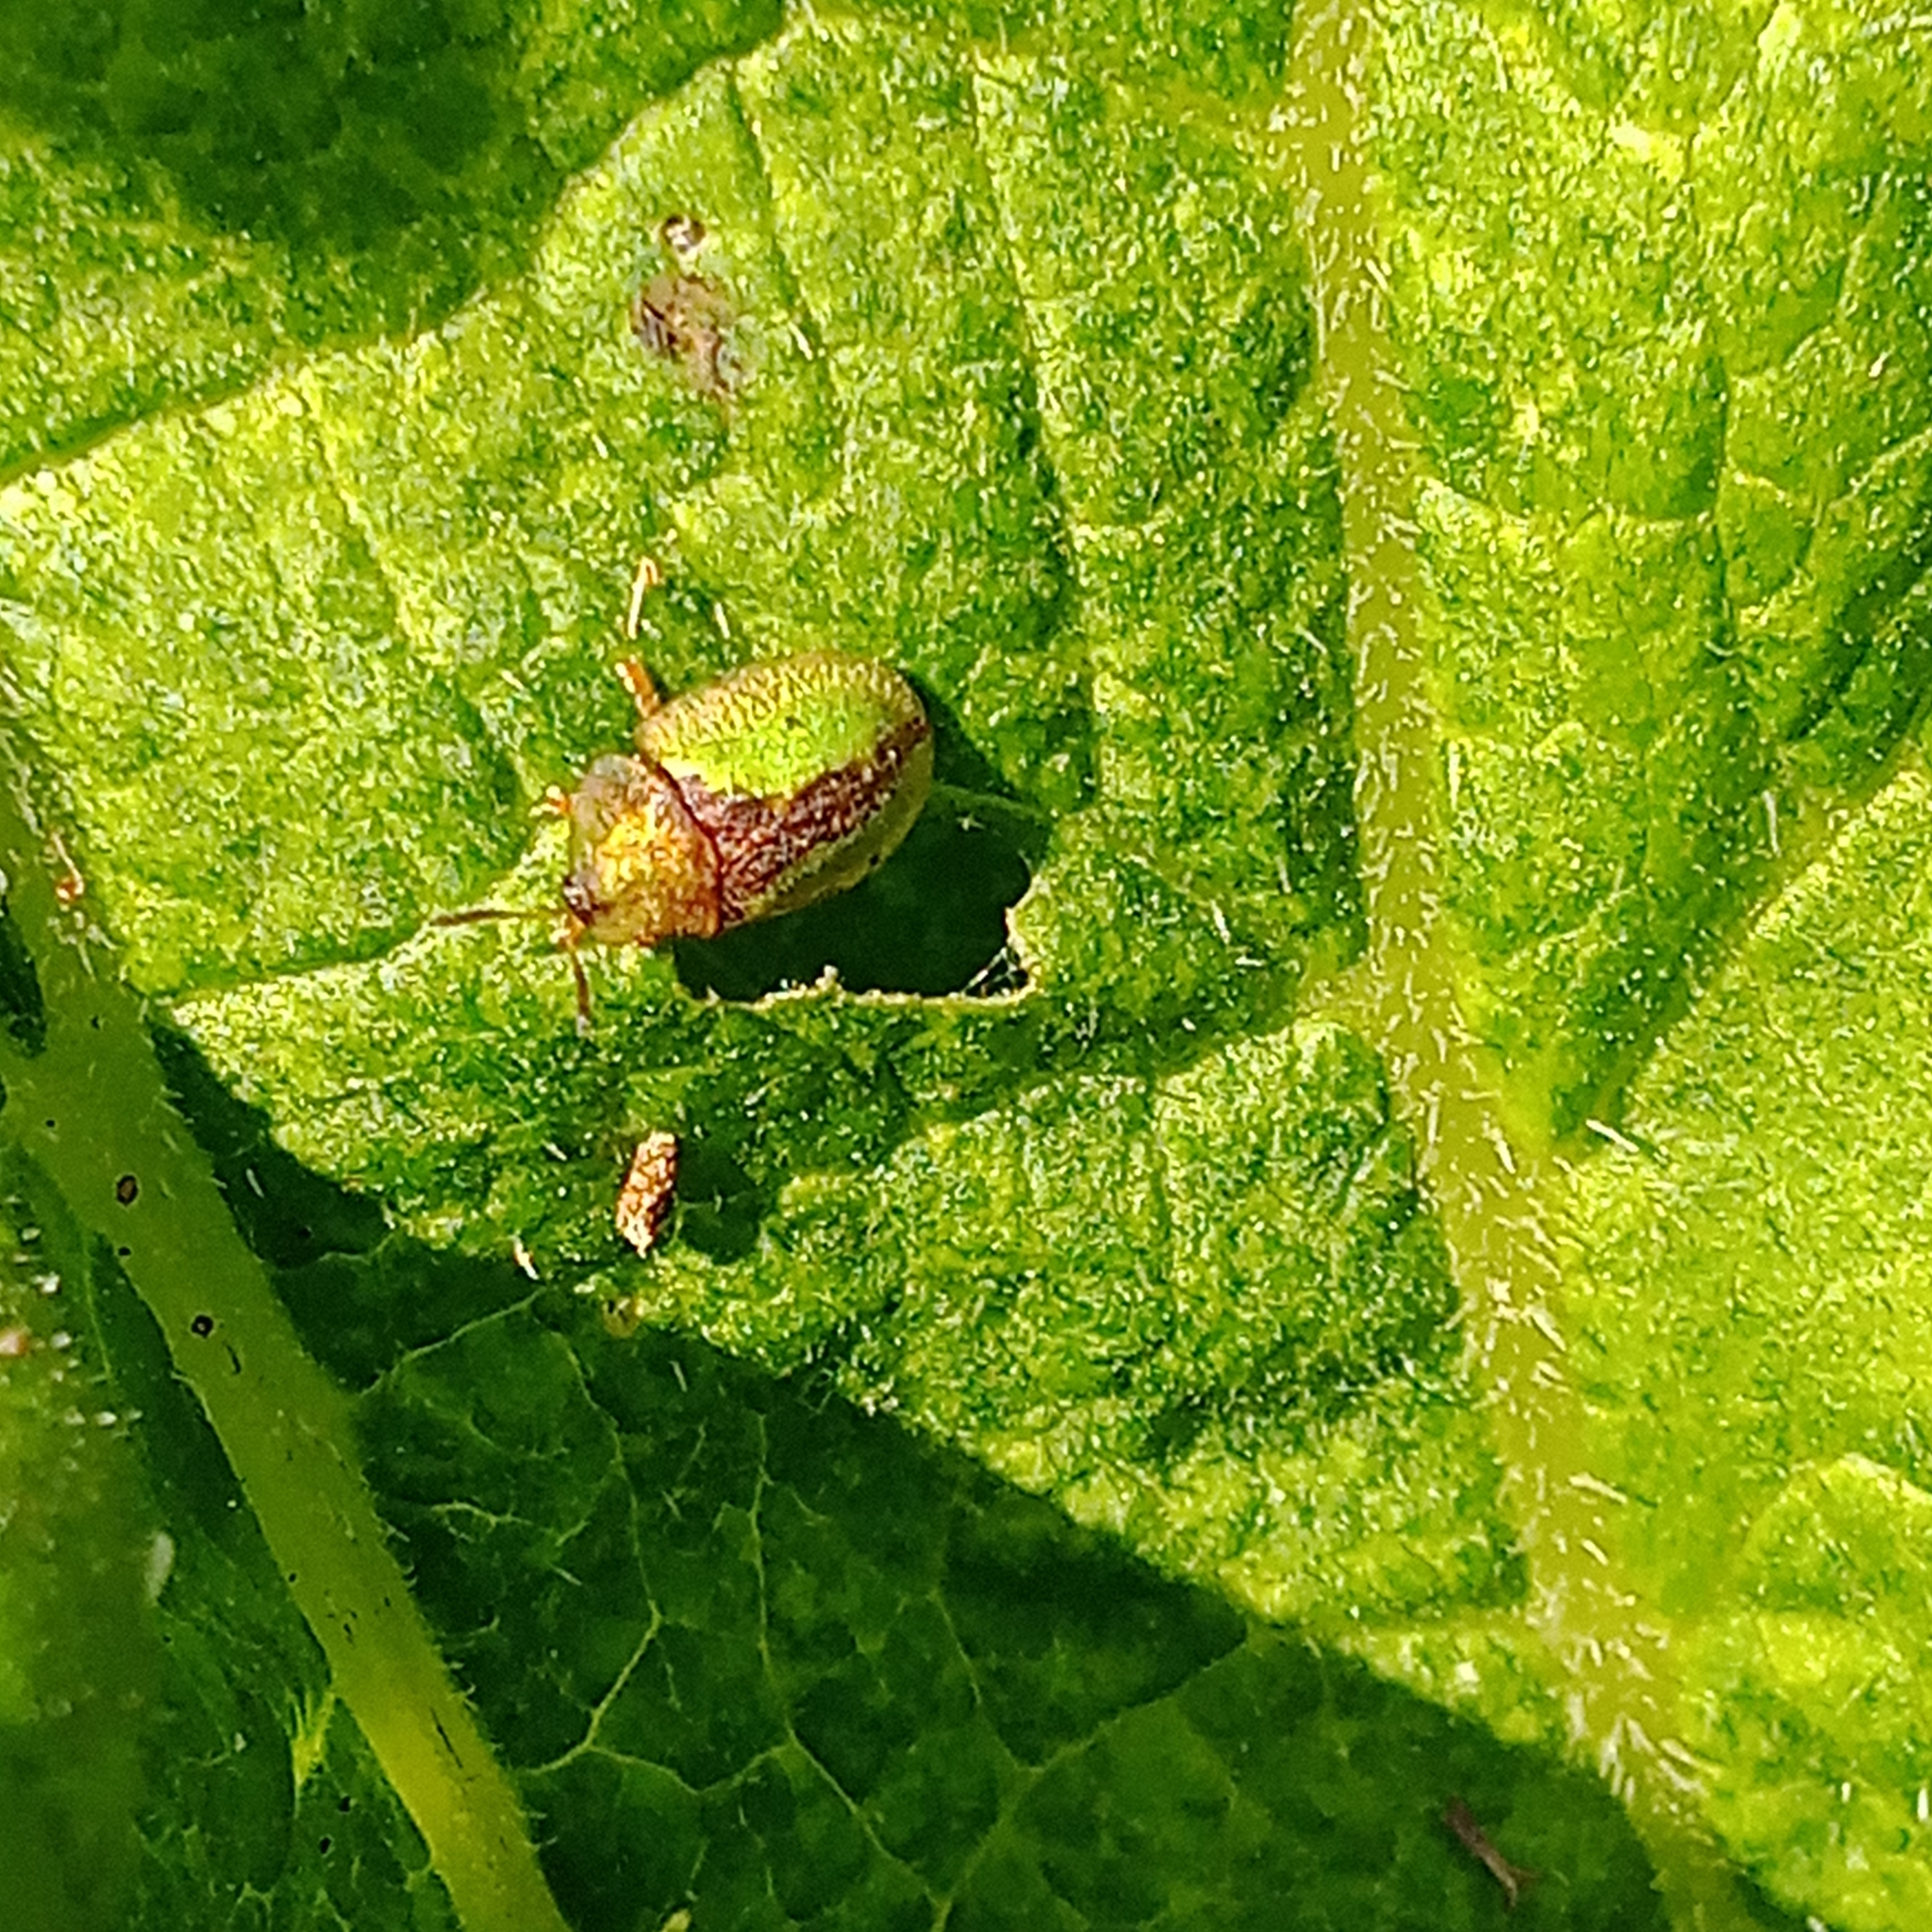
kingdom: Animalia
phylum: Arthropoda
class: Insecta
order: Coleoptera
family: Chrysomelidae
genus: Cassida
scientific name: Cassida vibex
